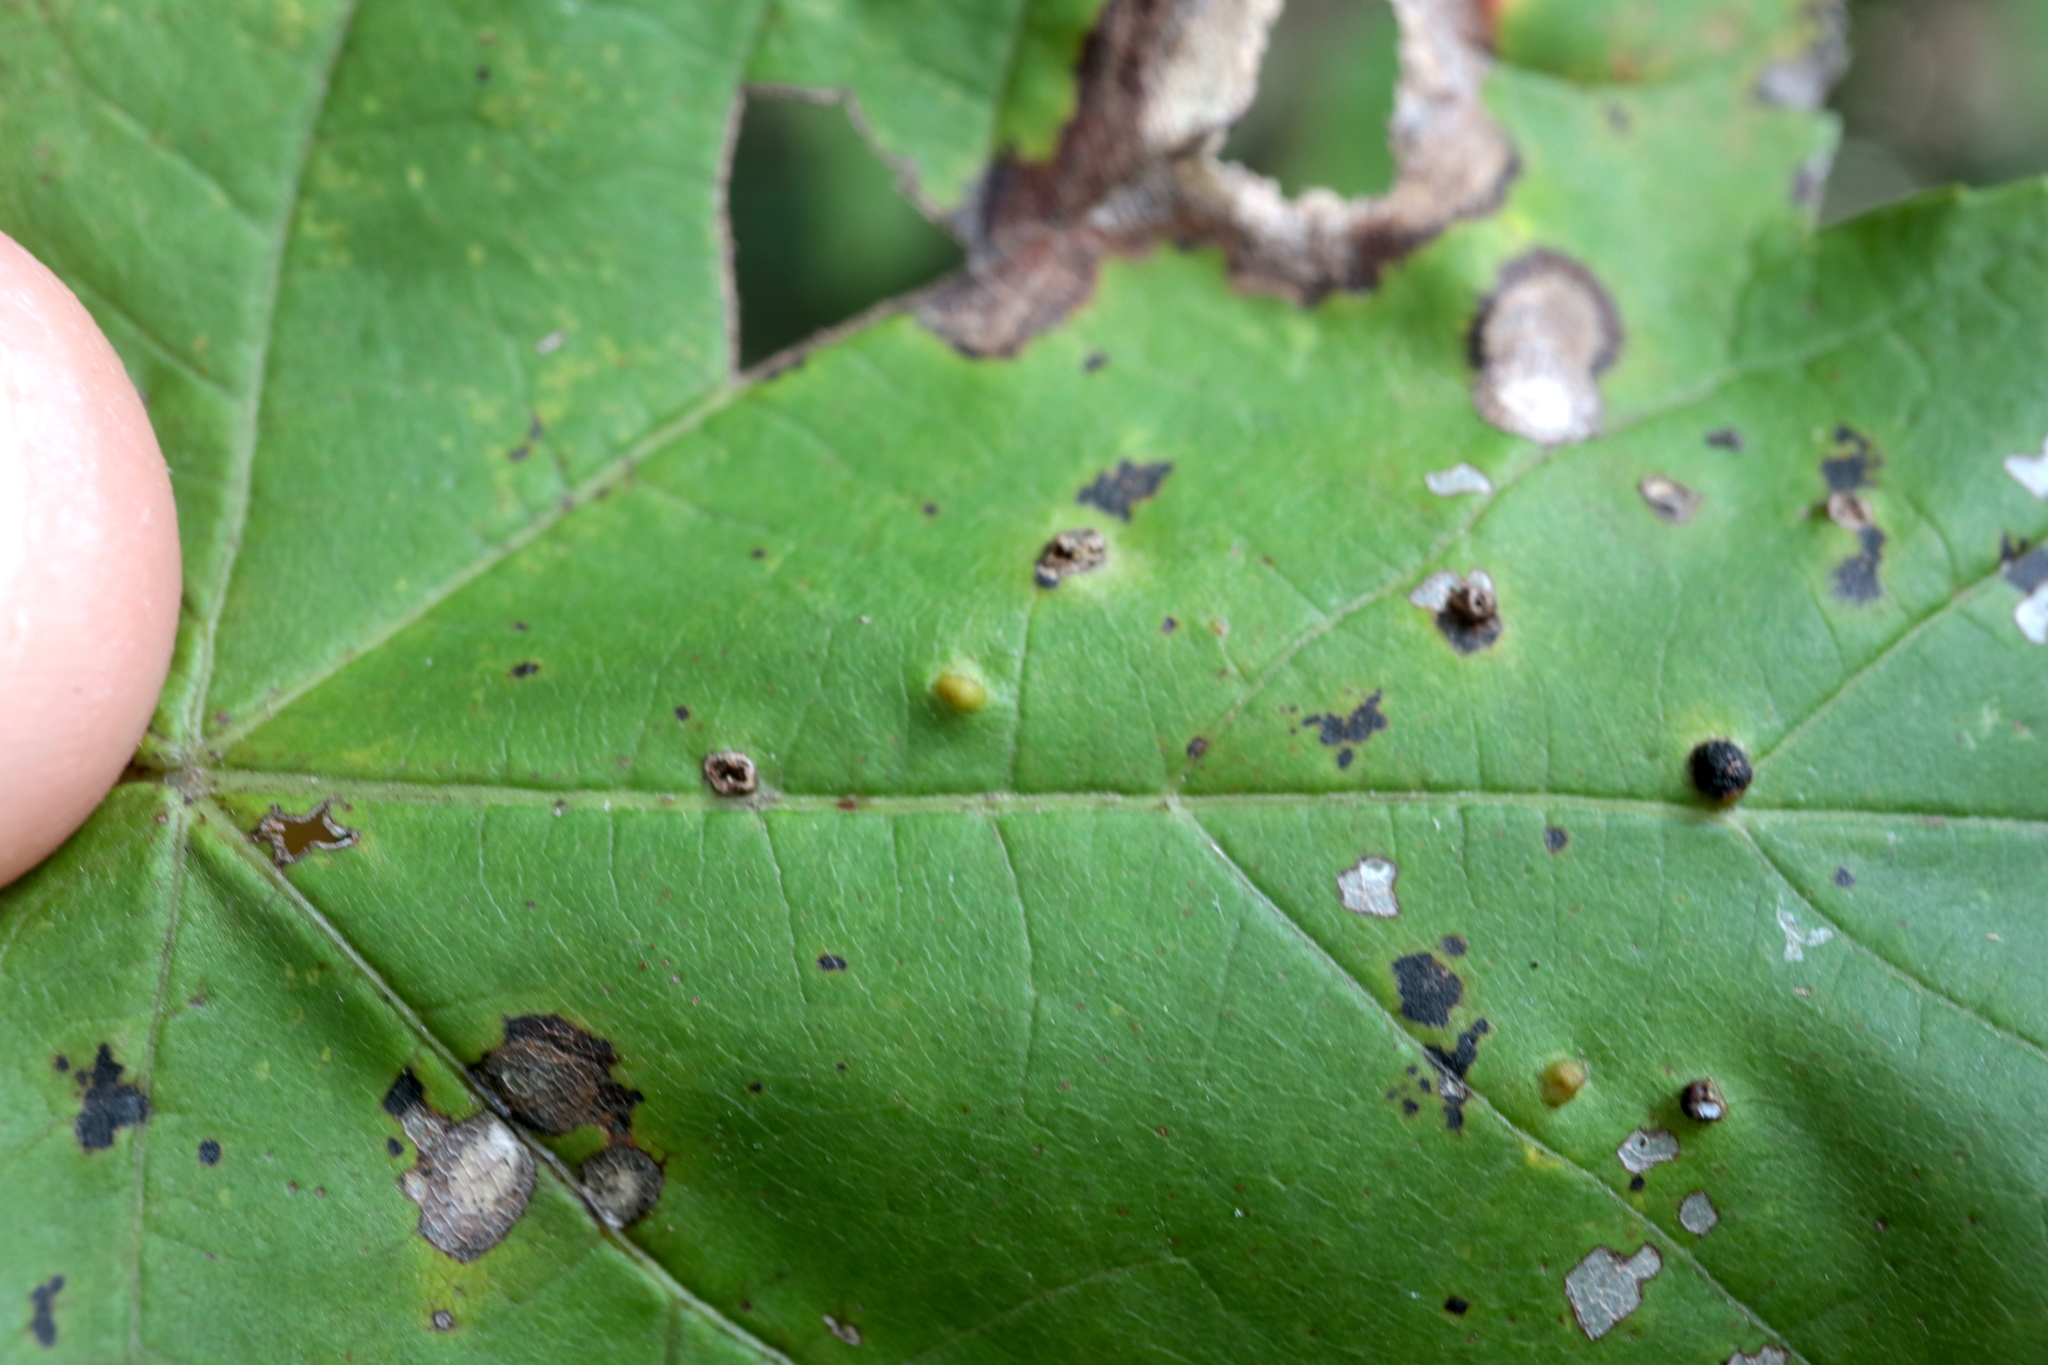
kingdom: Animalia
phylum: Arthropoda
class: Arachnida
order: Trombidiformes
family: Eriophyidae
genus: Vasates
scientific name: Vasates quadripedes
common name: Maple bladder gall mite
